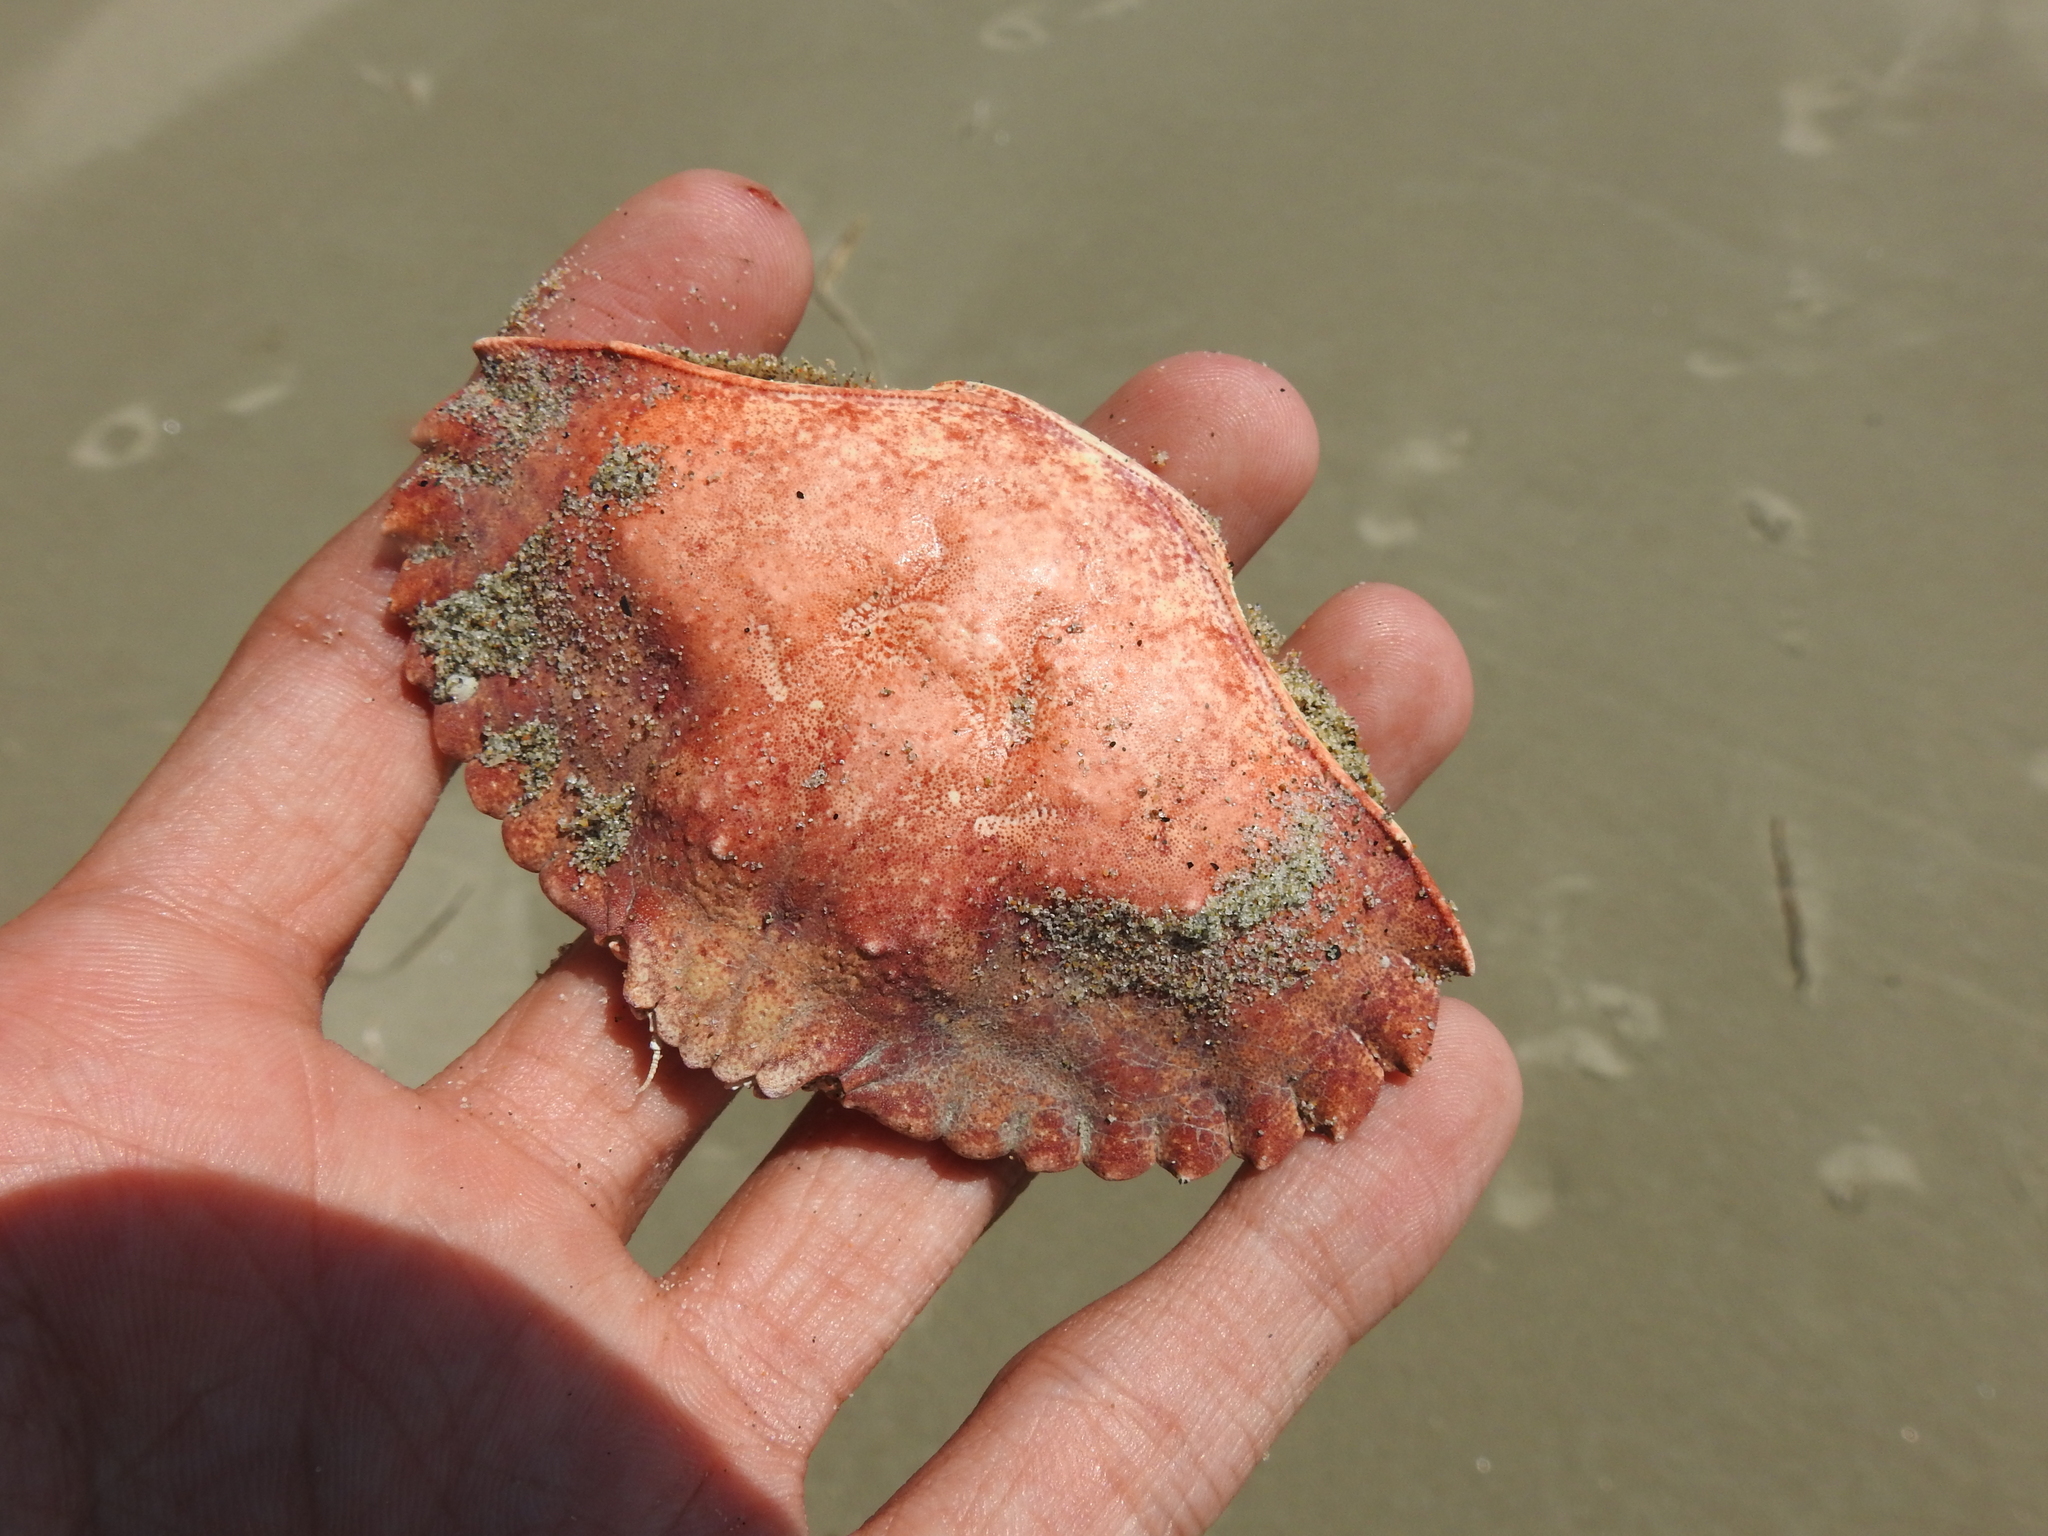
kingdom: Animalia
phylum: Arthropoda
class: Malacostraca
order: Decapoda
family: Cancridae
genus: Cancer
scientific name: Cancer productus
